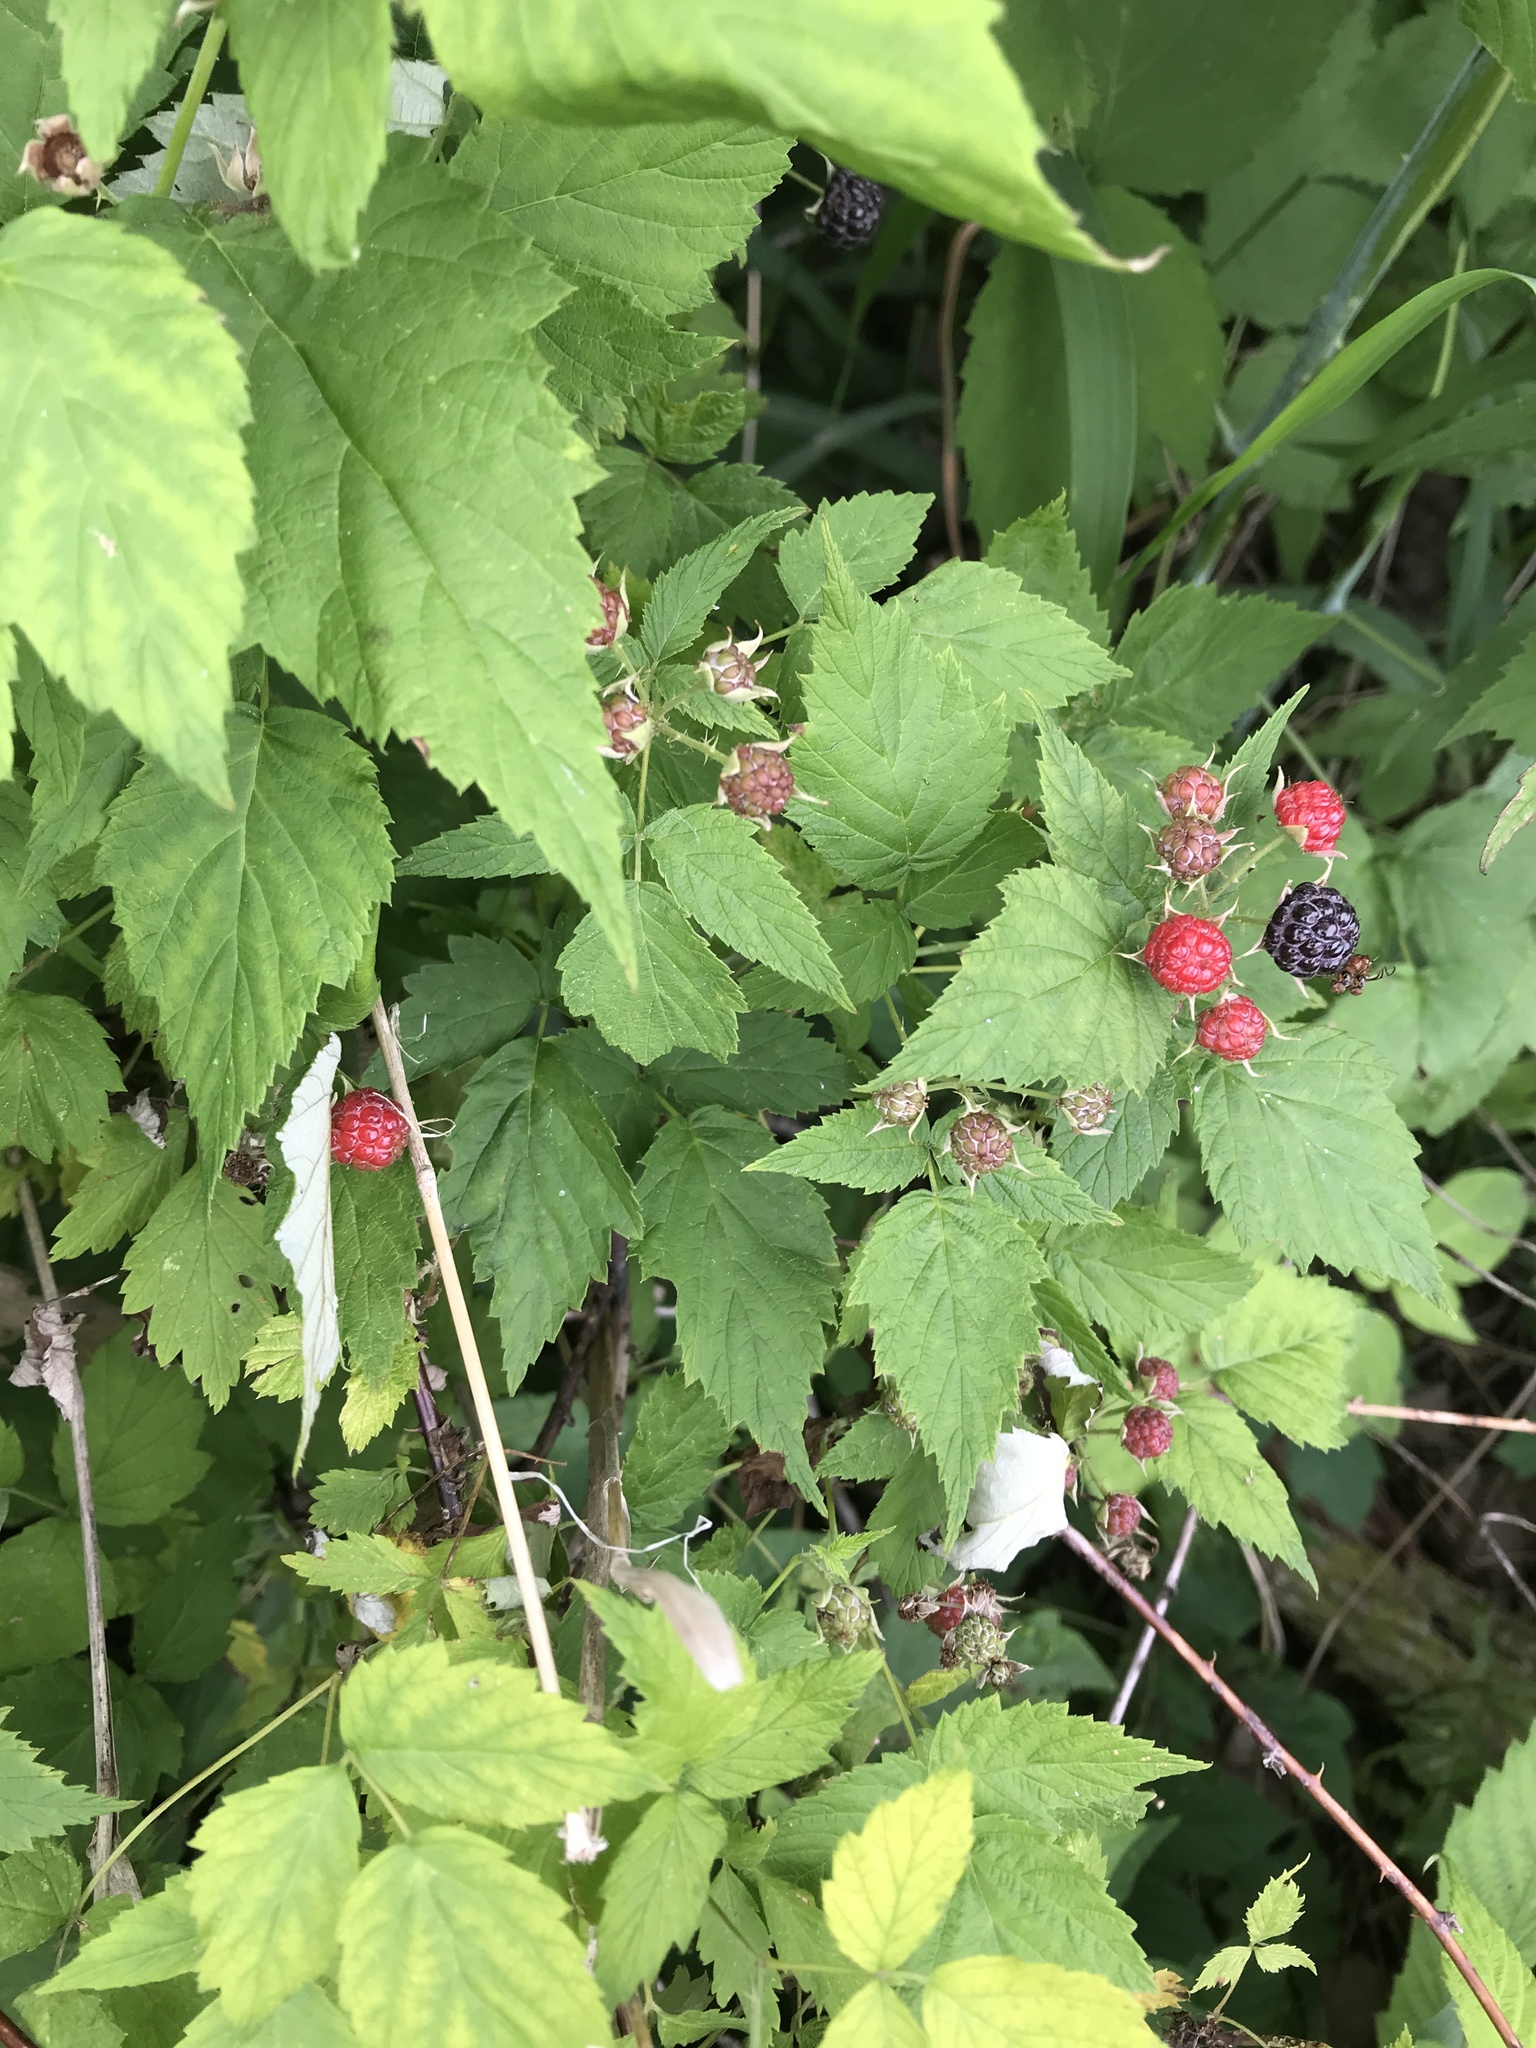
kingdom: Plantae
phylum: Tracheophyta
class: Magnoliopsida
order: Rosales
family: Rosaceae
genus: Rubus
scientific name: Rubus occidentalis
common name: Black raspberry
